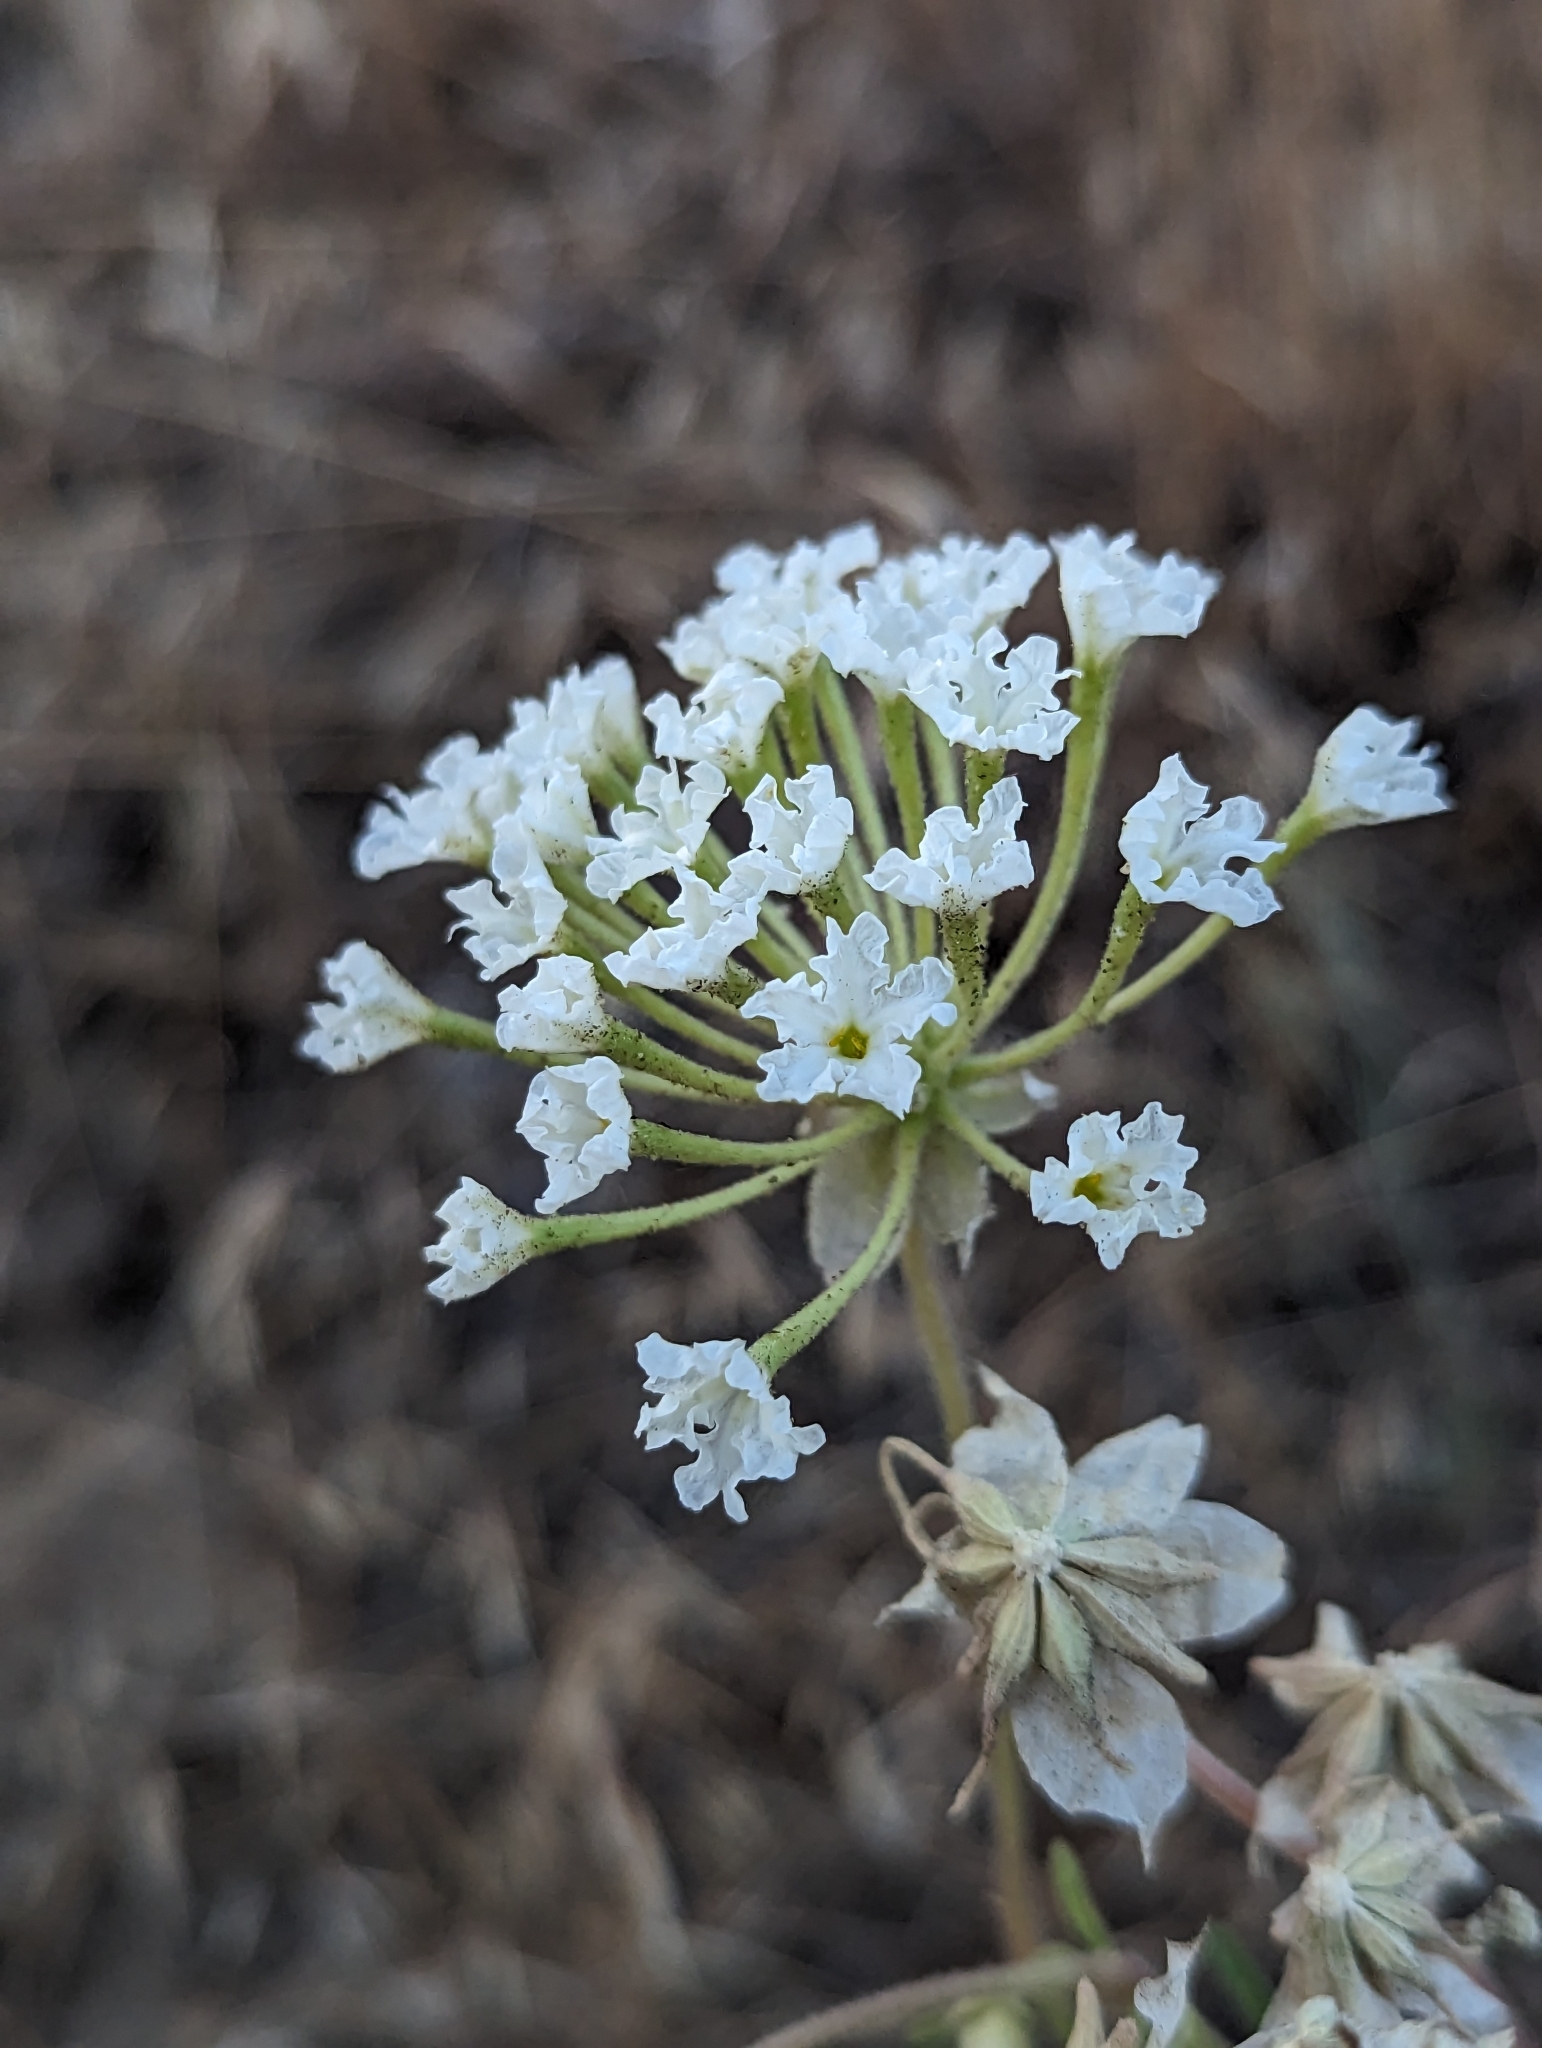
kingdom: Plantae
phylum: Tracheophyta
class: Magnoliopsida
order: Caryophyllales
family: Nyctaginaceae
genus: Abronia
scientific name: Abronia mellifera
